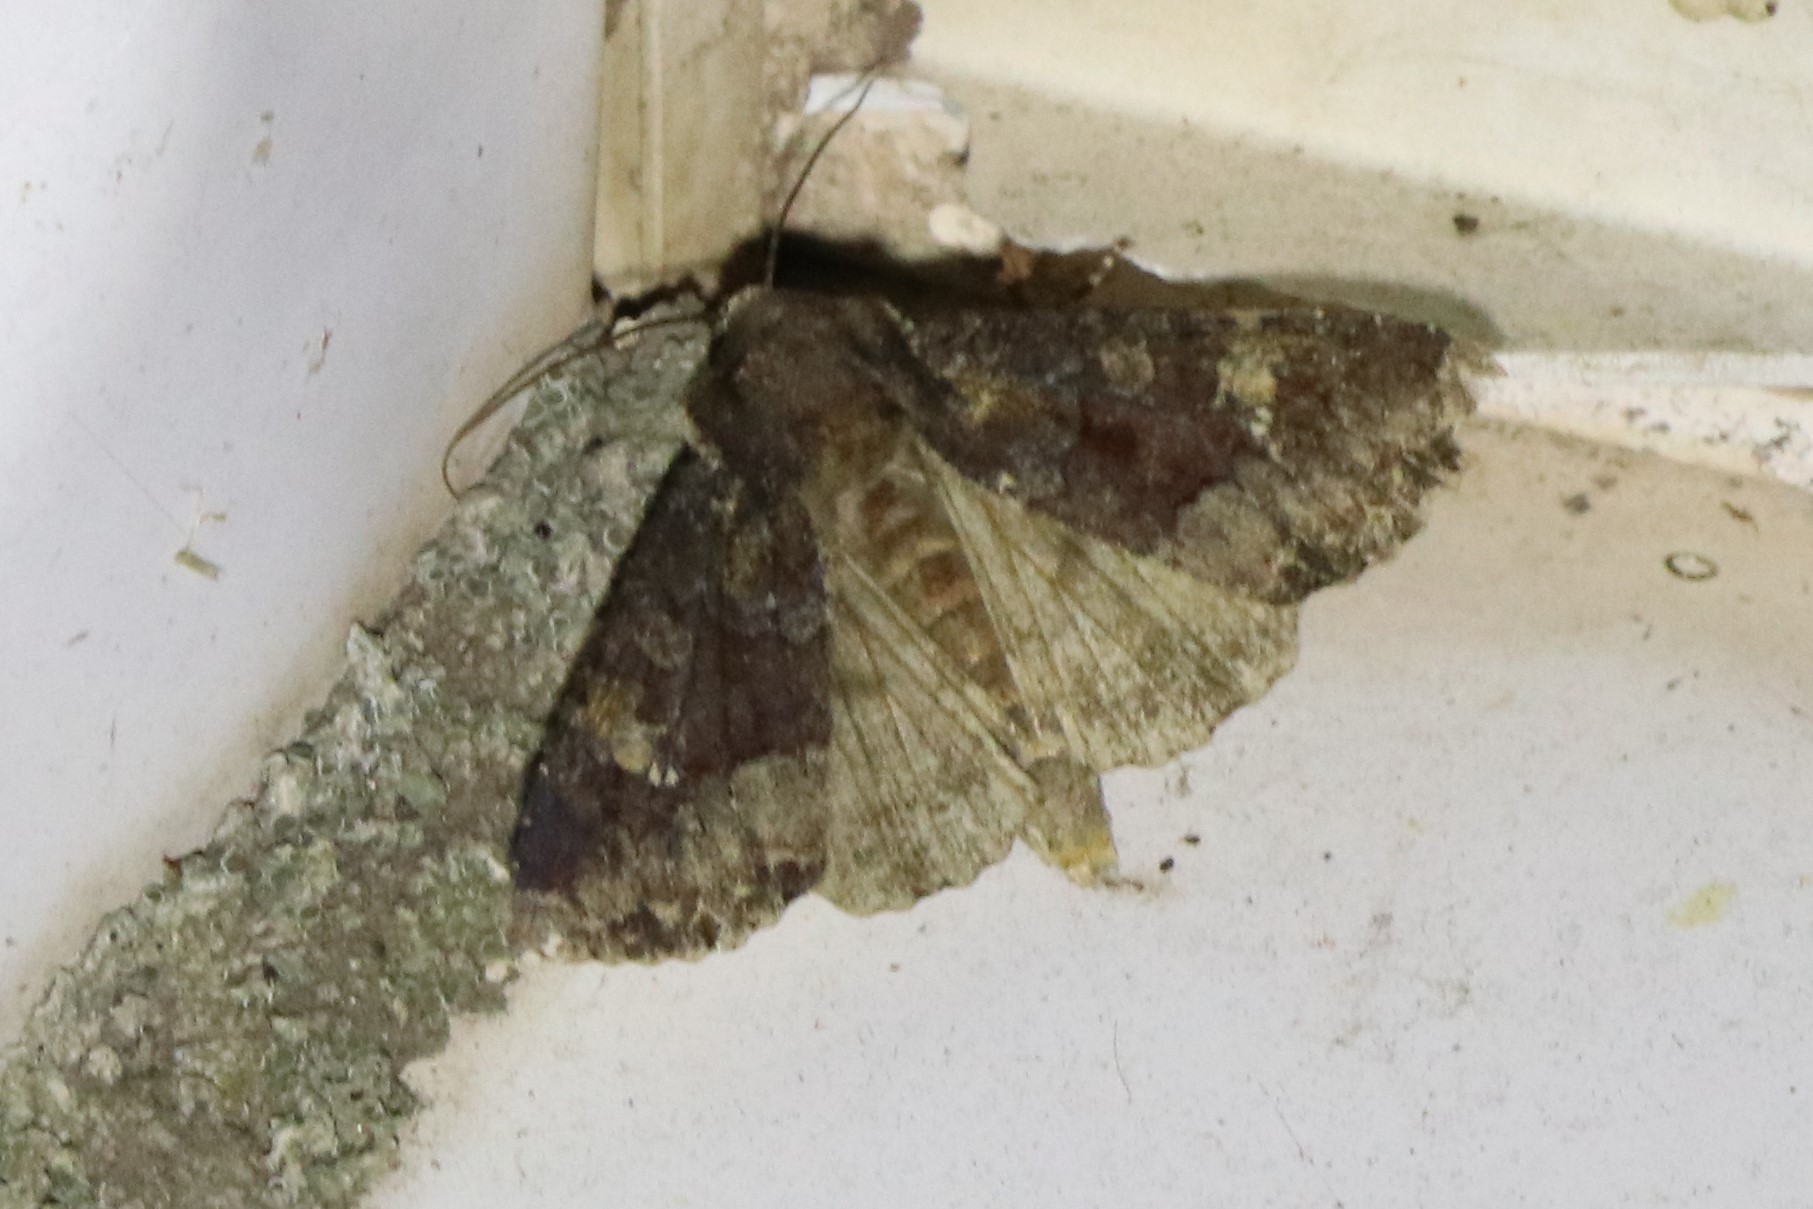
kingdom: Animalia
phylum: Arthropoda
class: Insecta
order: Lepidoptera
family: Noctuidae
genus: Apamea
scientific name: Apamea amputatrix
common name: Yellow-headed cutworm moth
